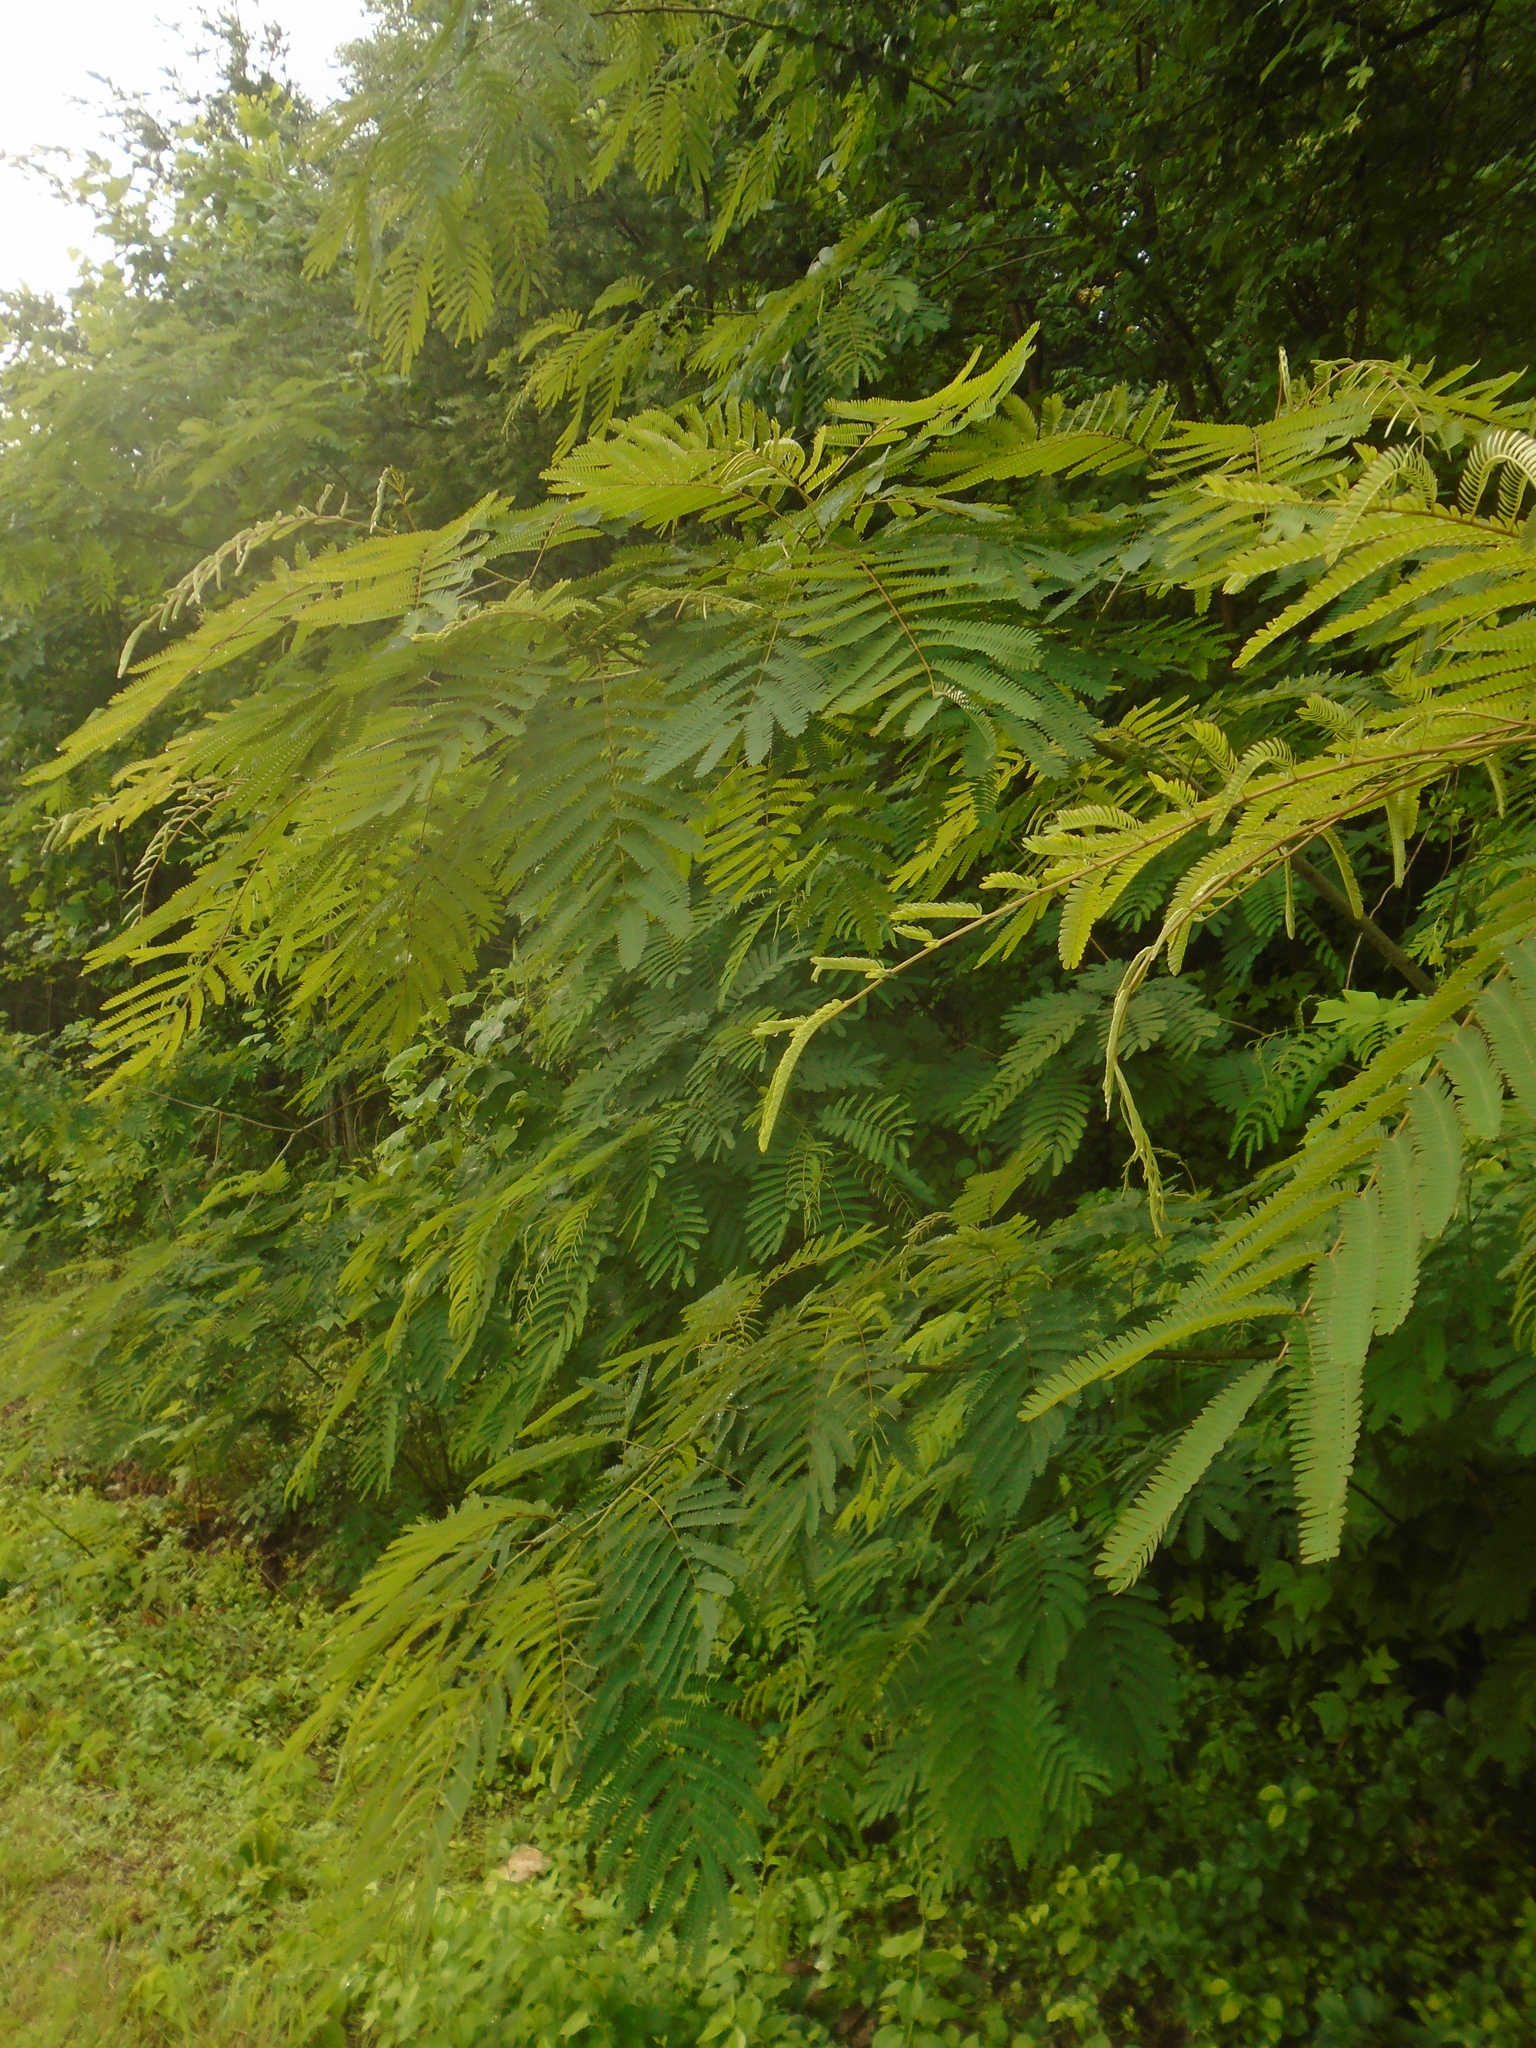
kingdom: Plantae
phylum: Tracheophyta
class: Magnoliopsida
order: Fabales
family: Fabaceae
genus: Albizia
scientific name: Albizia julibrissin
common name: Silktree
